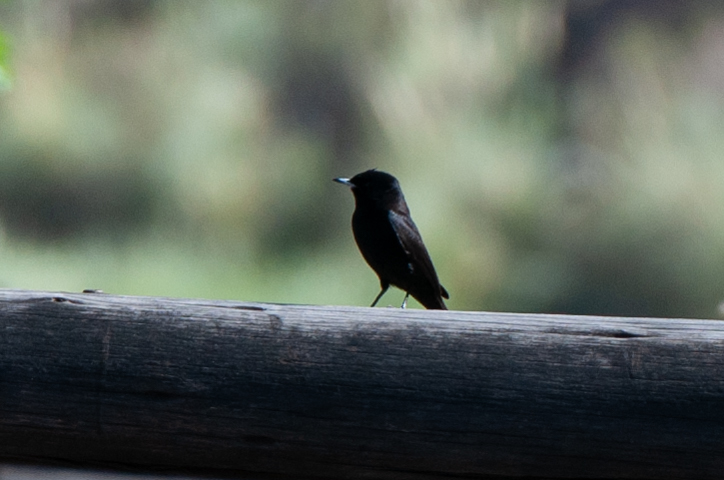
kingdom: Animalia
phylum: Chordata
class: Aves
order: Passeriformes
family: Tyrannidae
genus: Knipolegus
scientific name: Knipolegus aterrimus
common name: White-winged black tyrant
